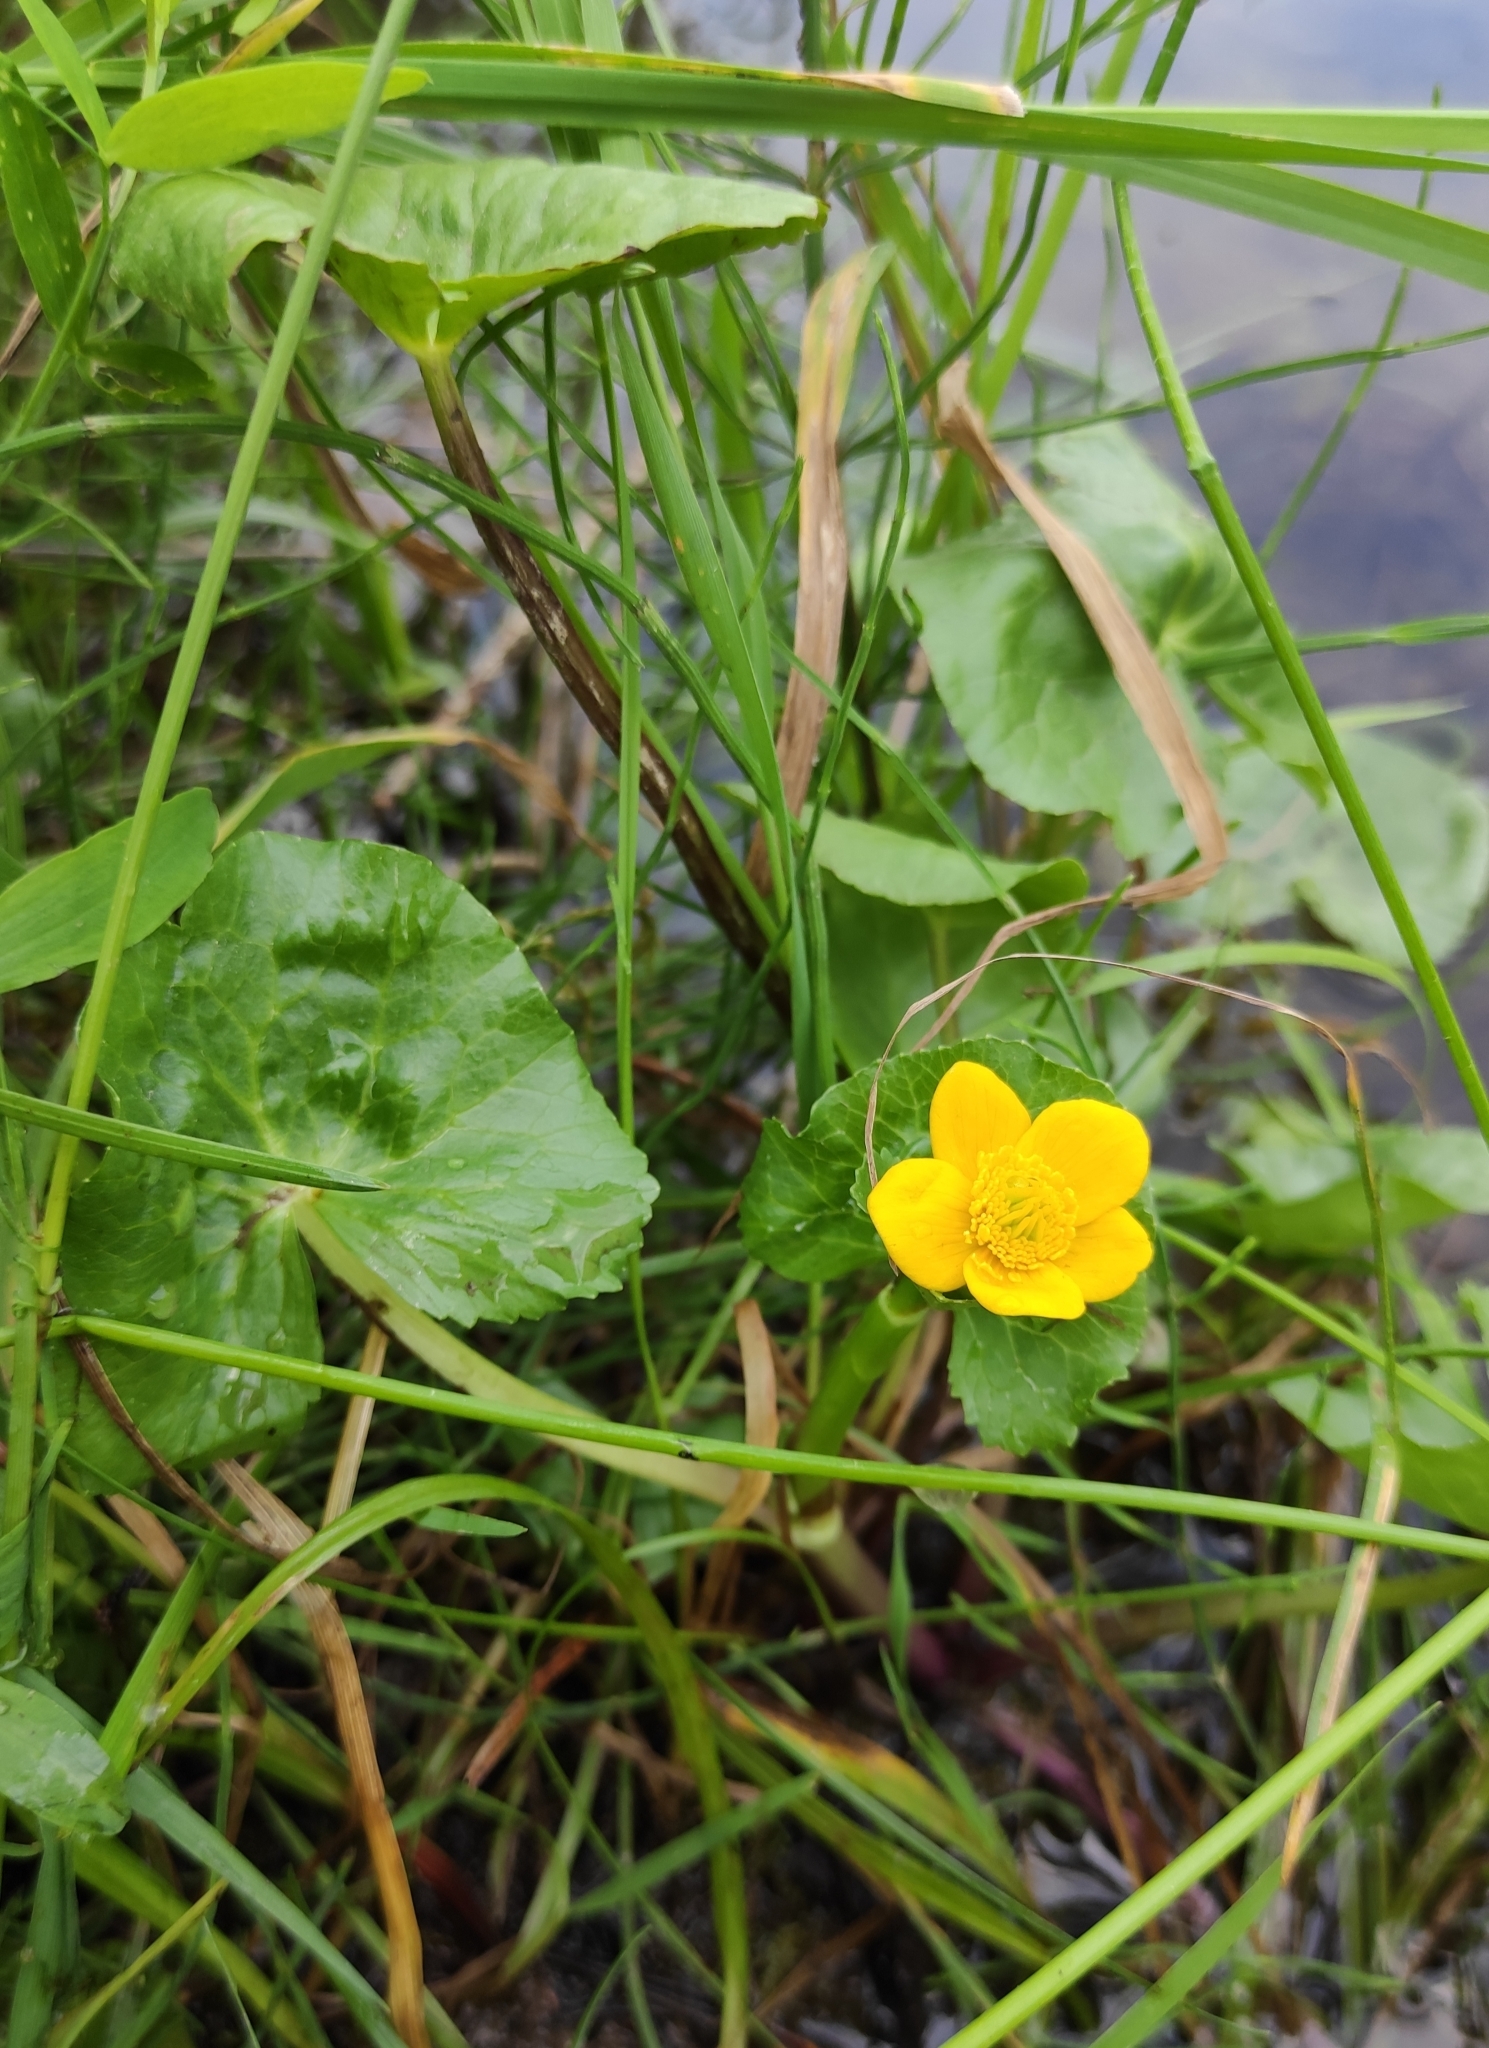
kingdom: Plantae
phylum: Tracheophyta
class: Magnoliopsida
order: Ranunculales
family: Ranunculaceae
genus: Caltha
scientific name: Caltha palustris
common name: Marsh marigold
